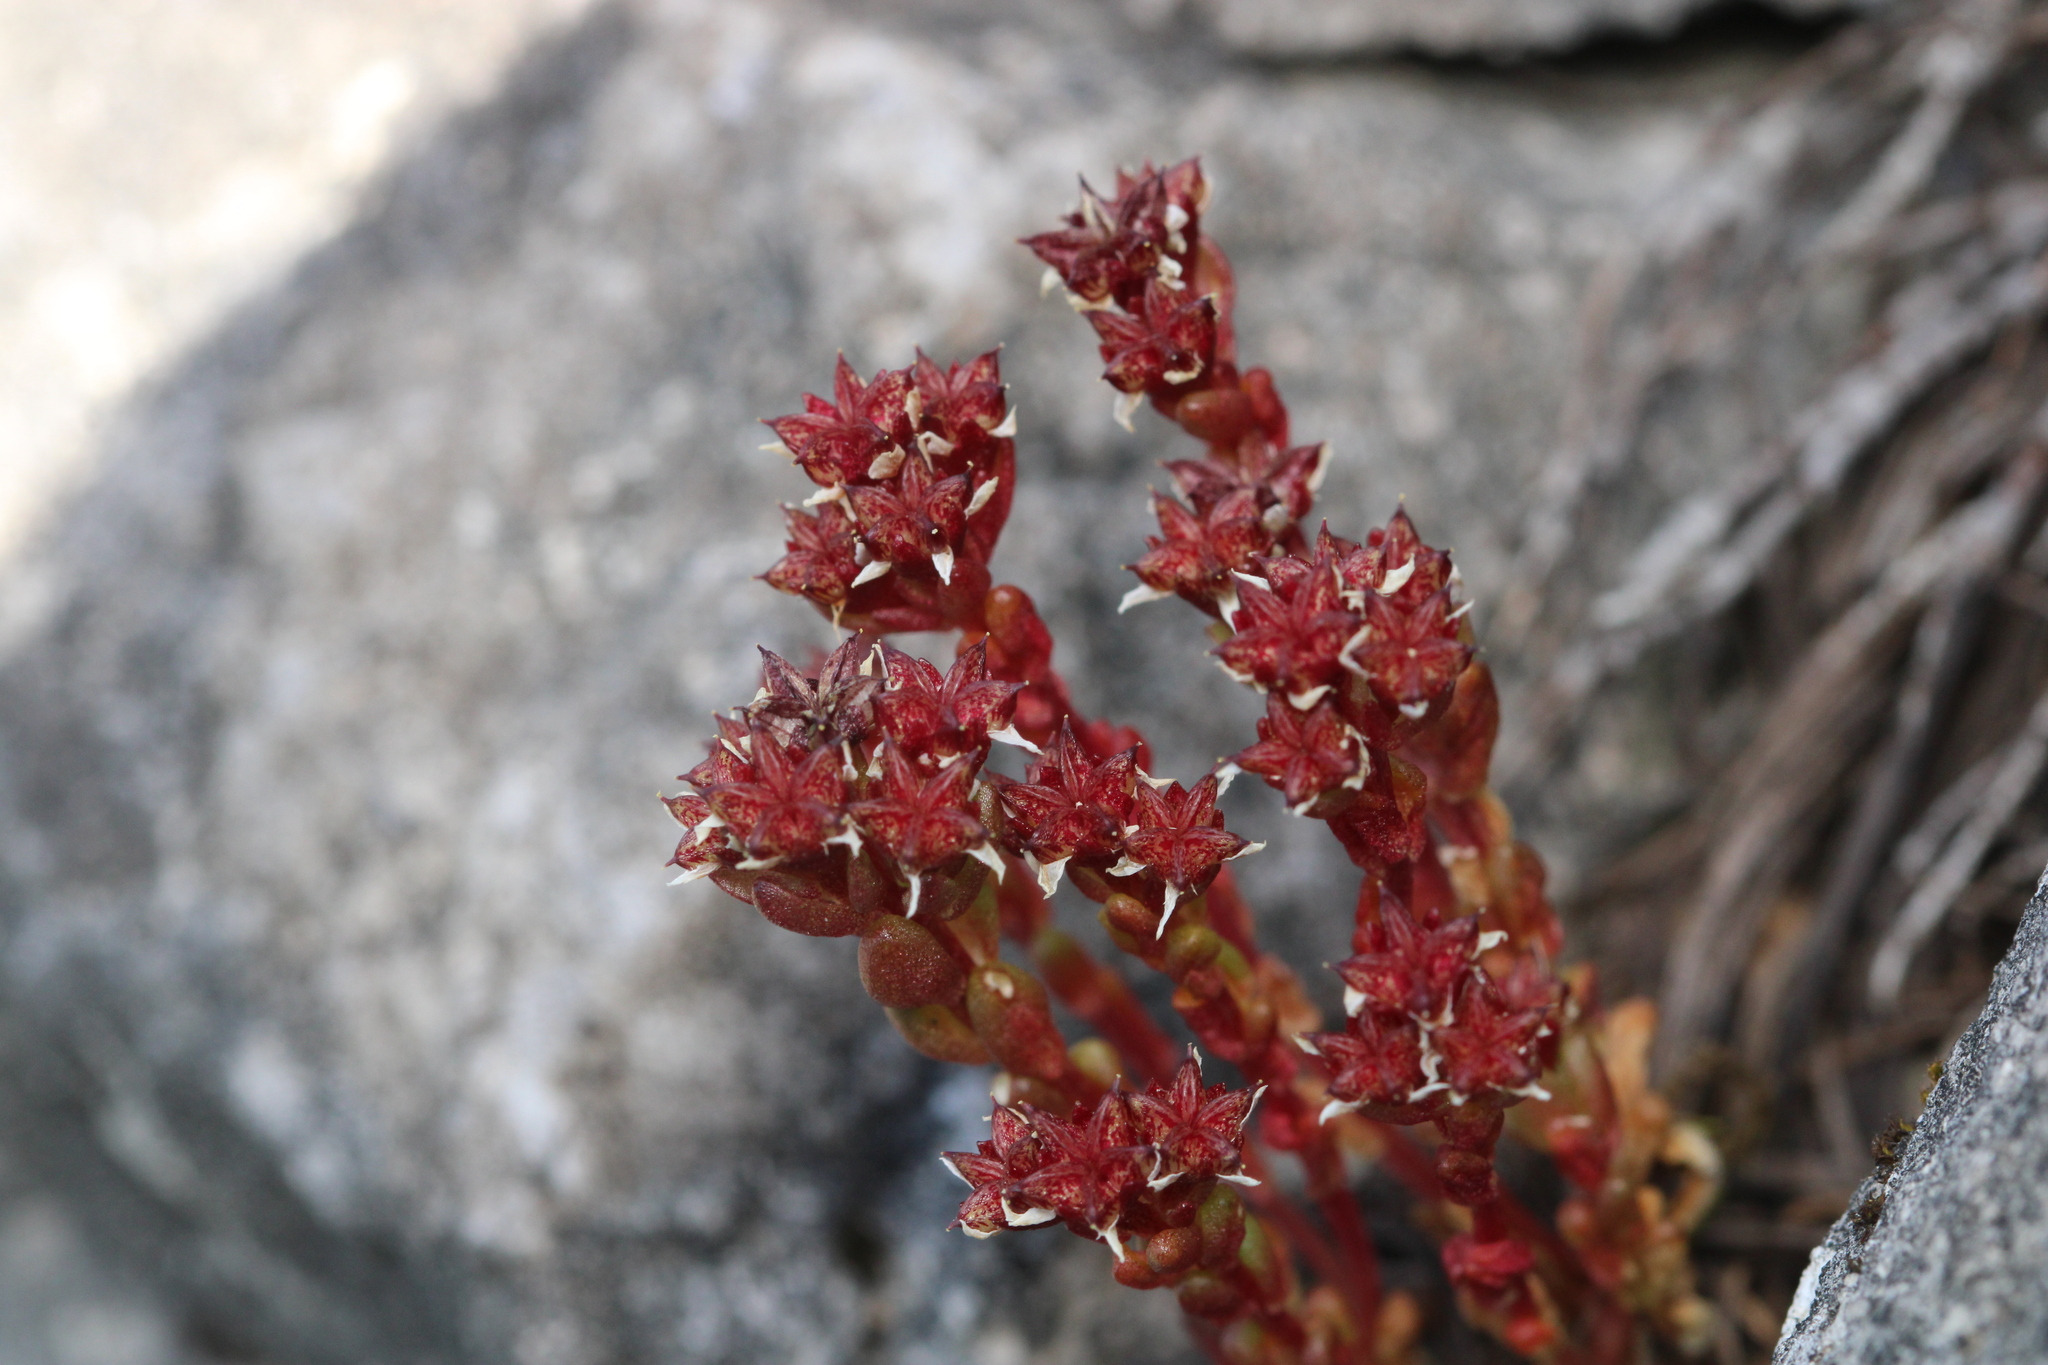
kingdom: Plantae
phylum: Tracheophyta
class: Magnoliopsida
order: Saxifragales
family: Crassulaceae
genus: Sedum
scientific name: Sedum atratum
